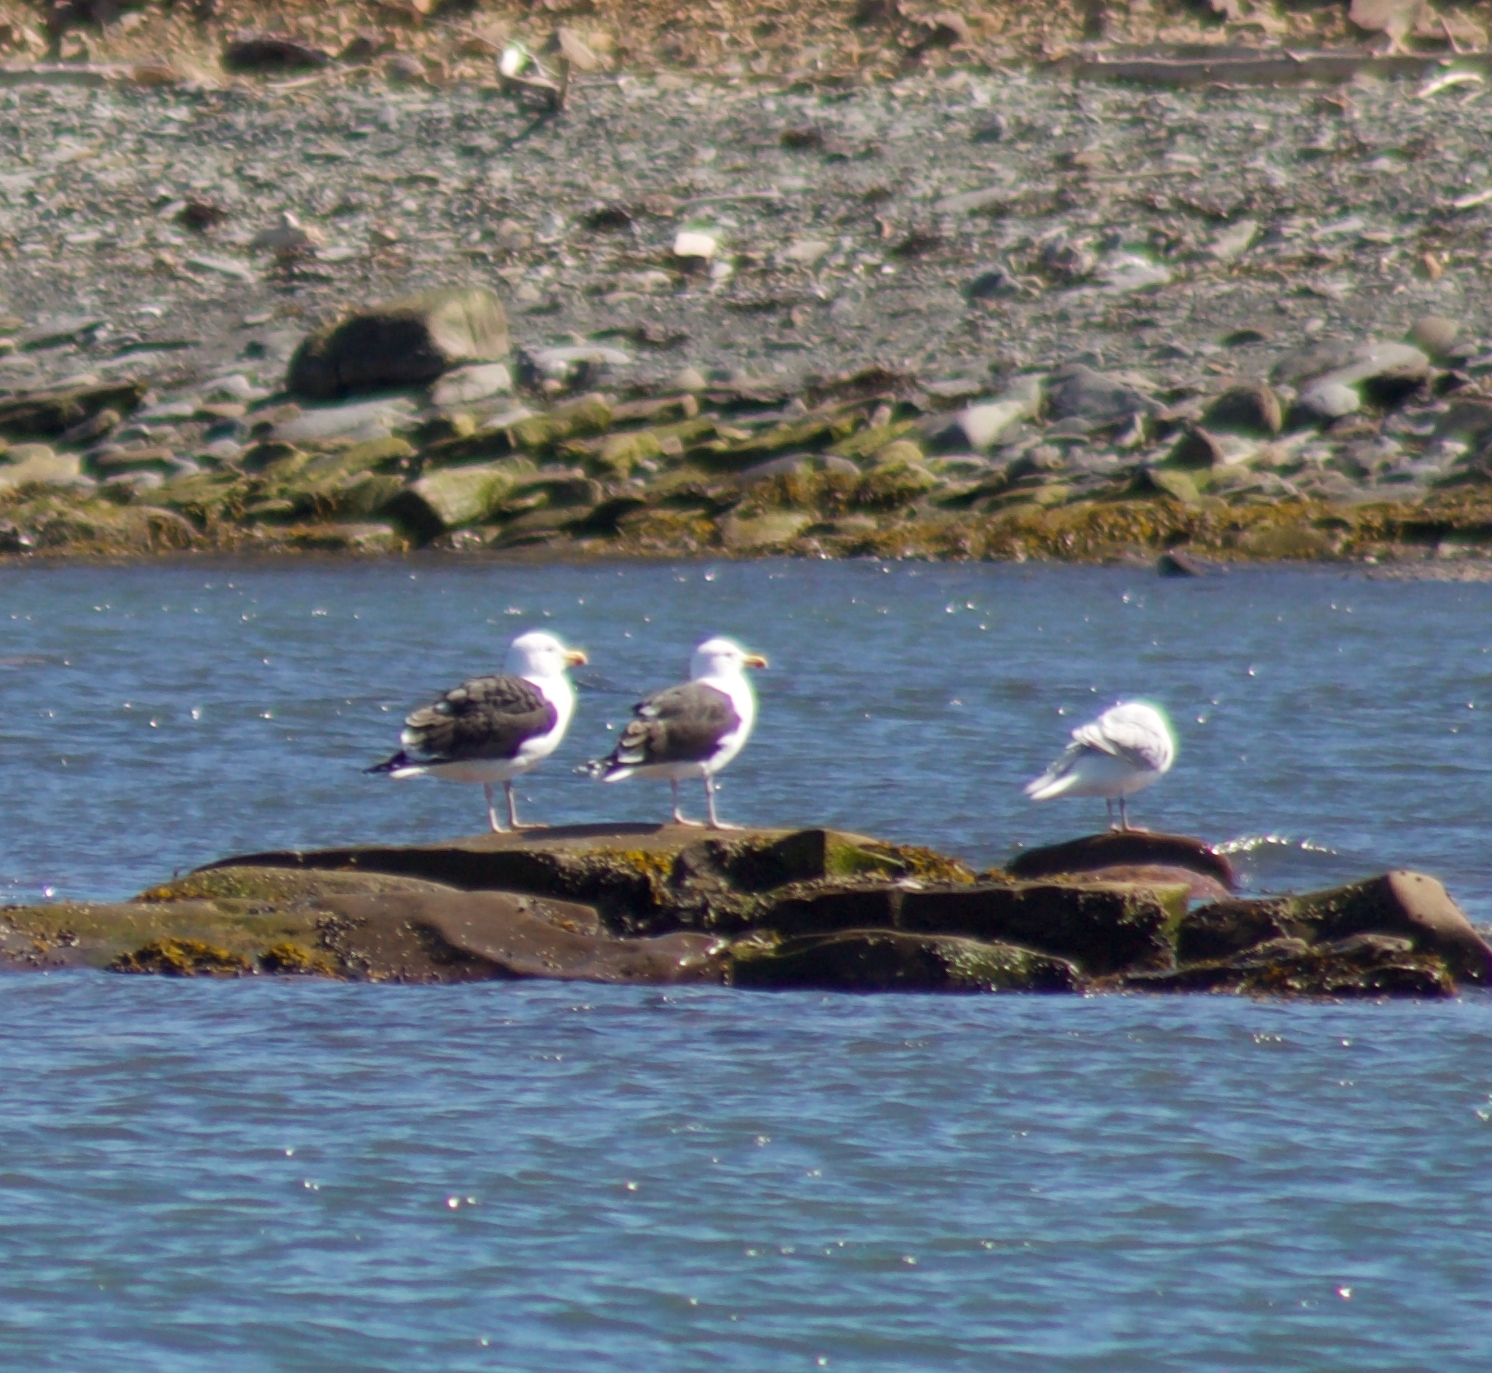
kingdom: Animalia
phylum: Chordata
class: Aves
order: Charadriiformes
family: Laridae
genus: Larus
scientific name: Larus marinus
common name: Great black-backed gull
